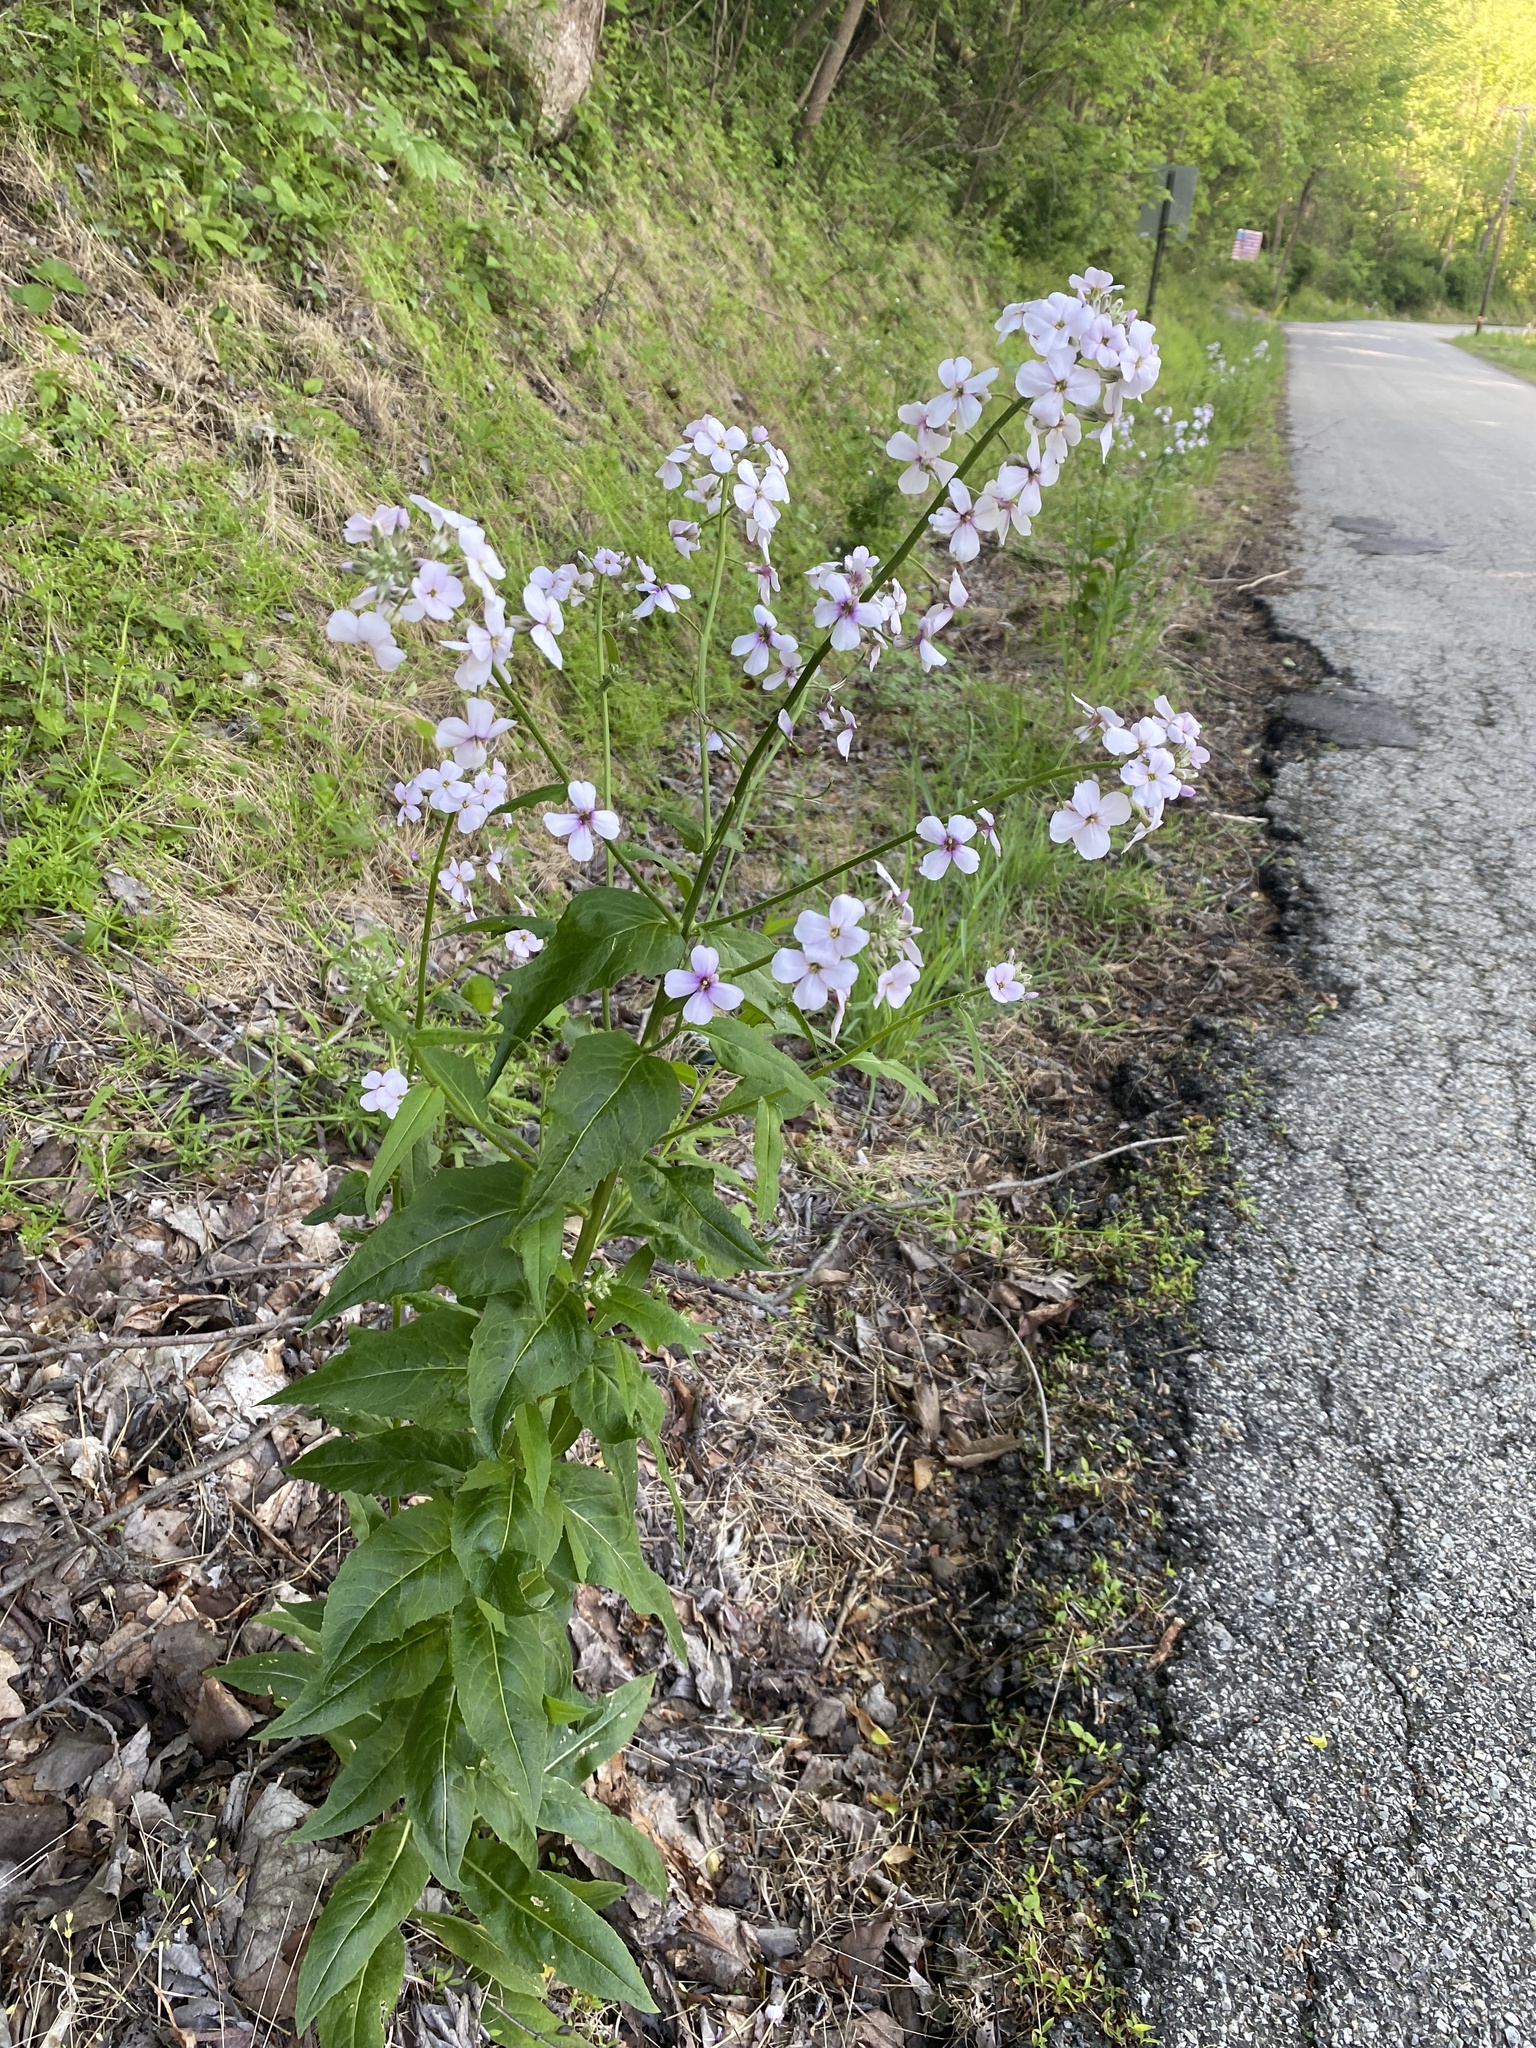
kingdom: Plantae
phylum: Tracheophyta
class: Magnoliopsida
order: Brassicales
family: Brassicaceae
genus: Hesperis
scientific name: Hesperis matronalis
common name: Dame's-violet
